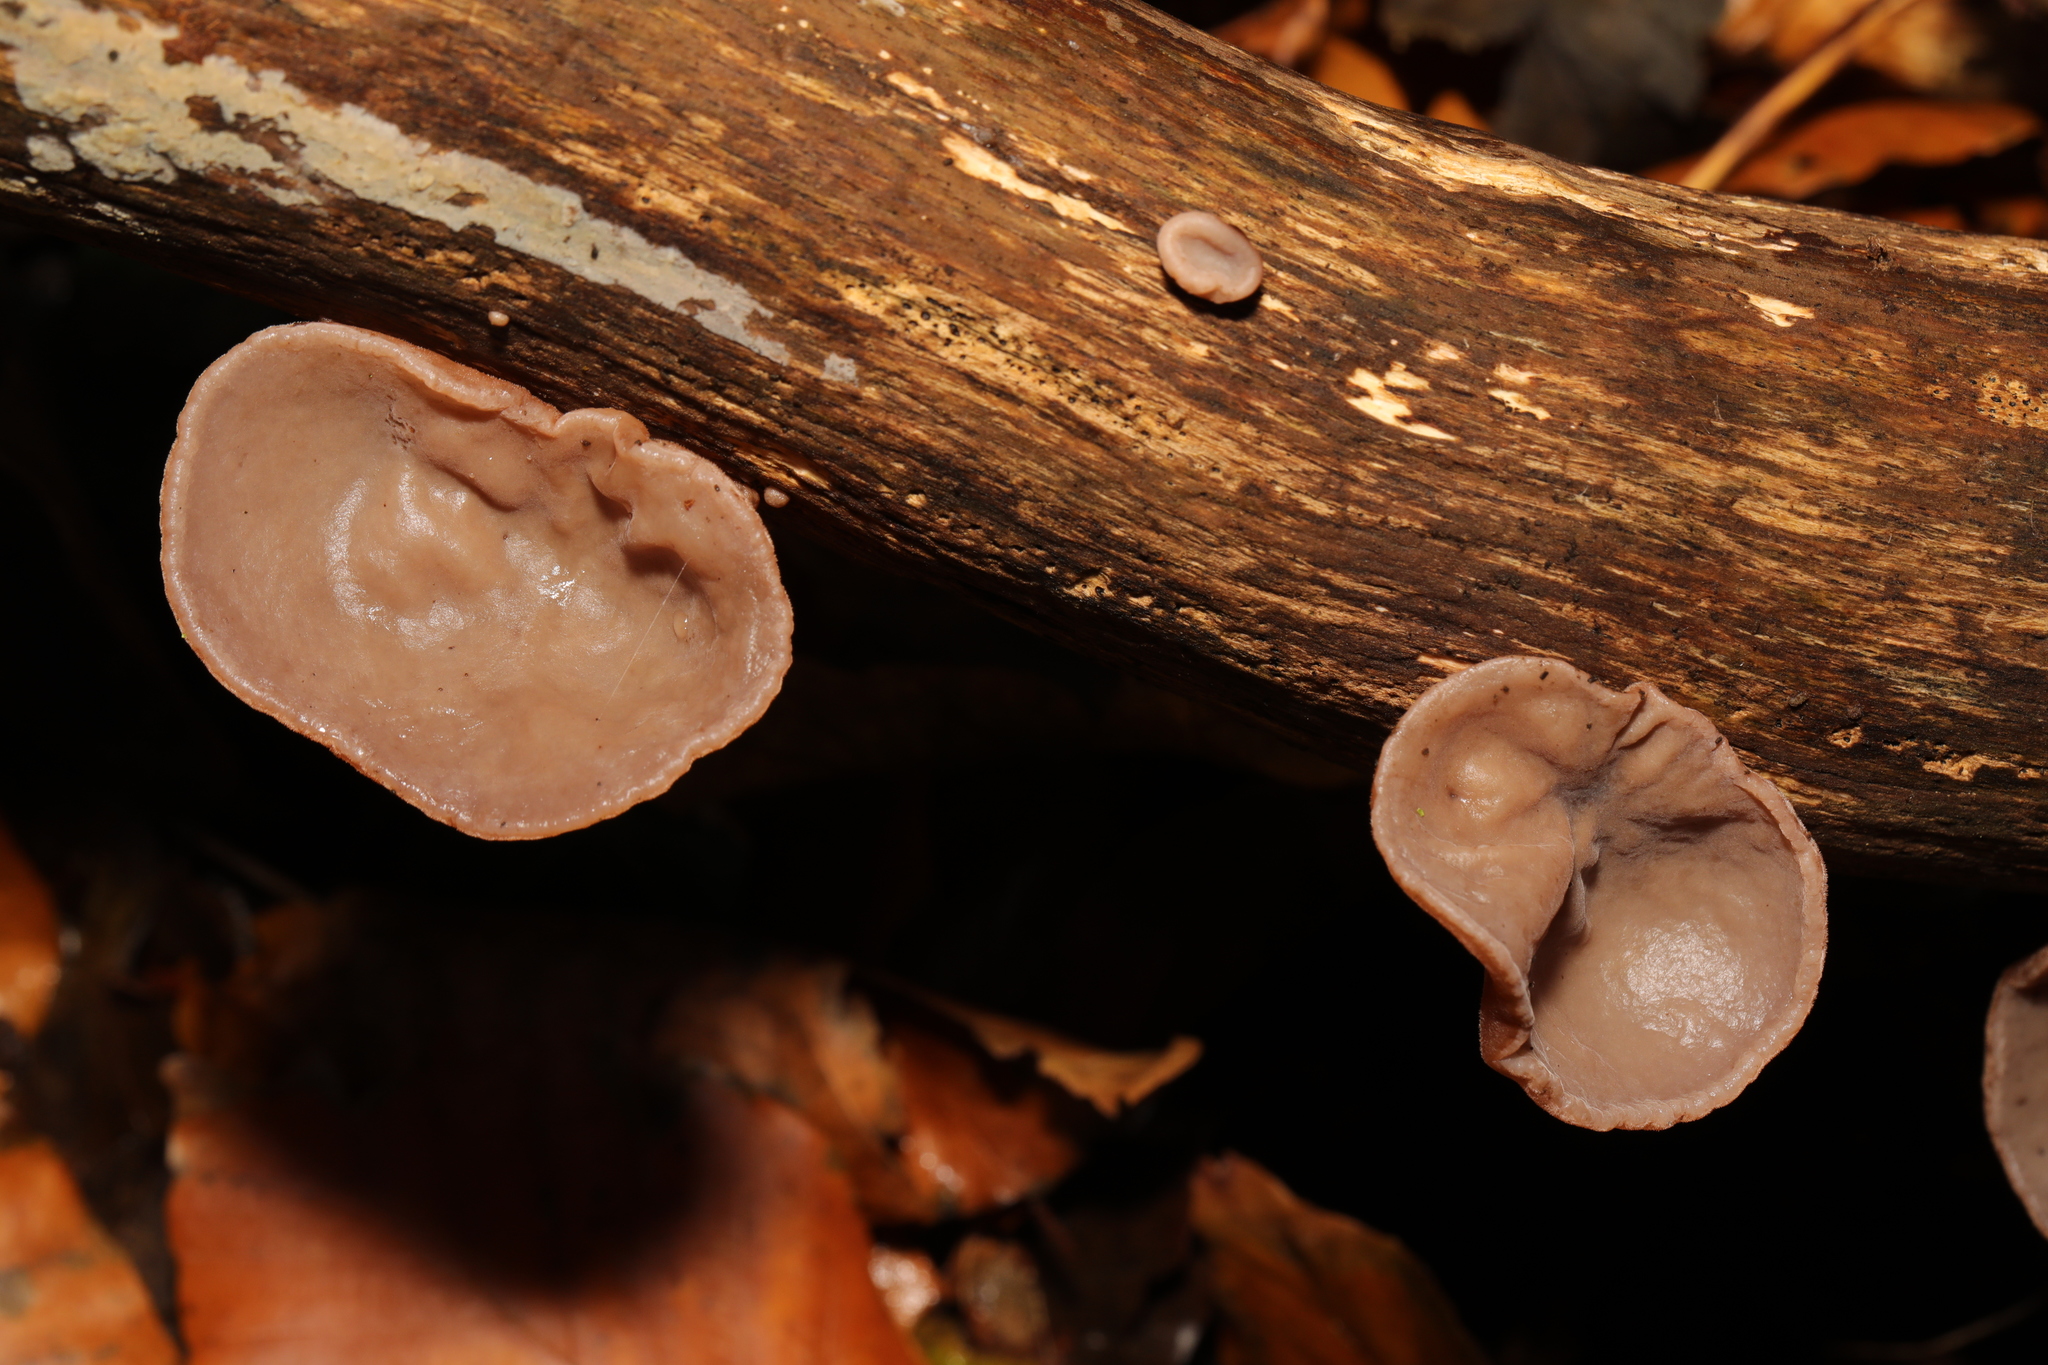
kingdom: Fungi
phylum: Basidiomycota
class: Agaricomycetes
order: Auriculariales
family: Auriculariaceae
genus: Auricularia
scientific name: Auricularia auricula-judae
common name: Jelly ear
